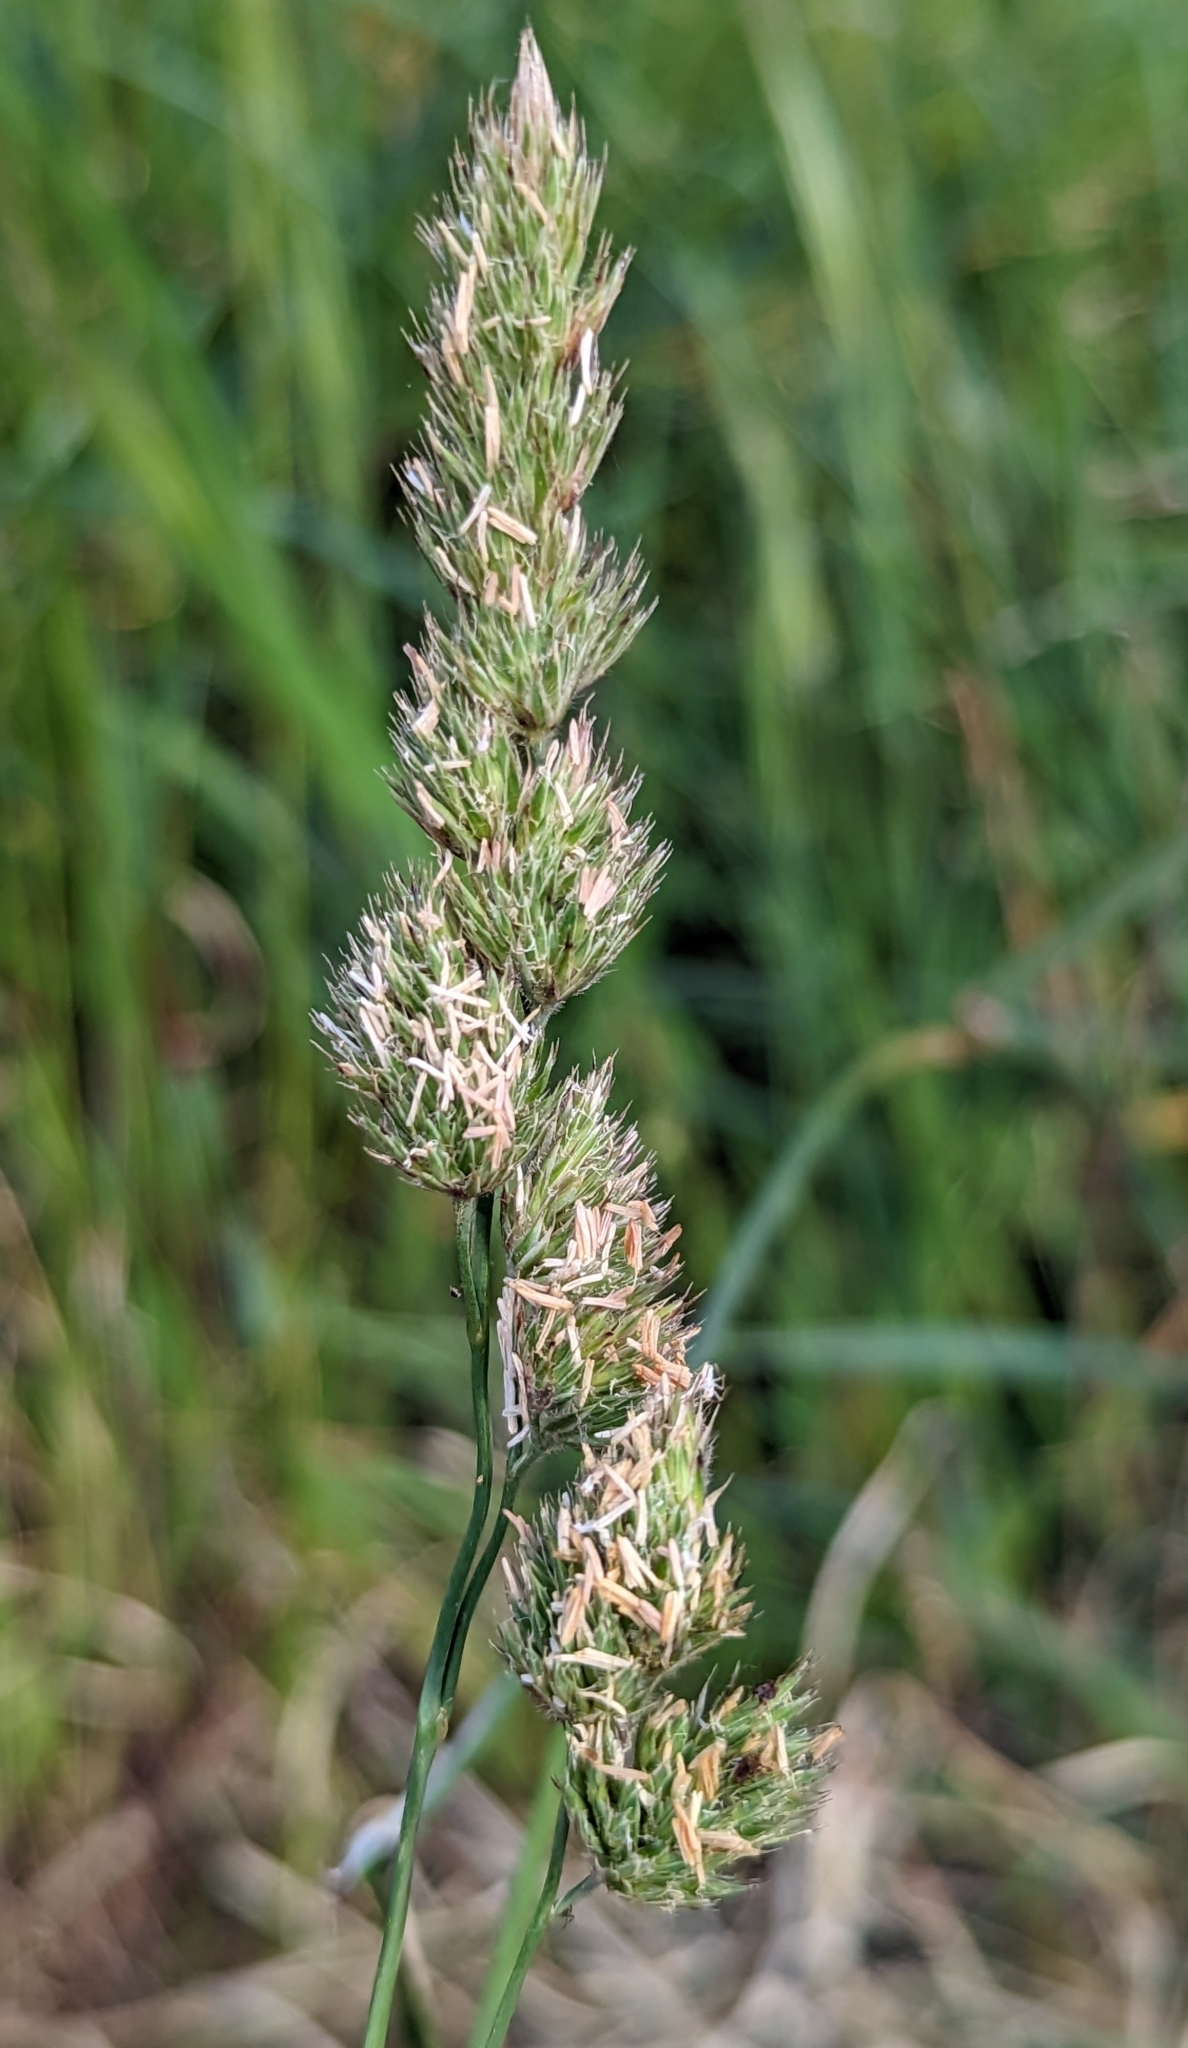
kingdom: Plantae
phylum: Tracheophyta
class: Liliopsida
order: Poales
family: Poaceae
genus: Dactylis
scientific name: Dactylis glomerata
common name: Orchardgrass
